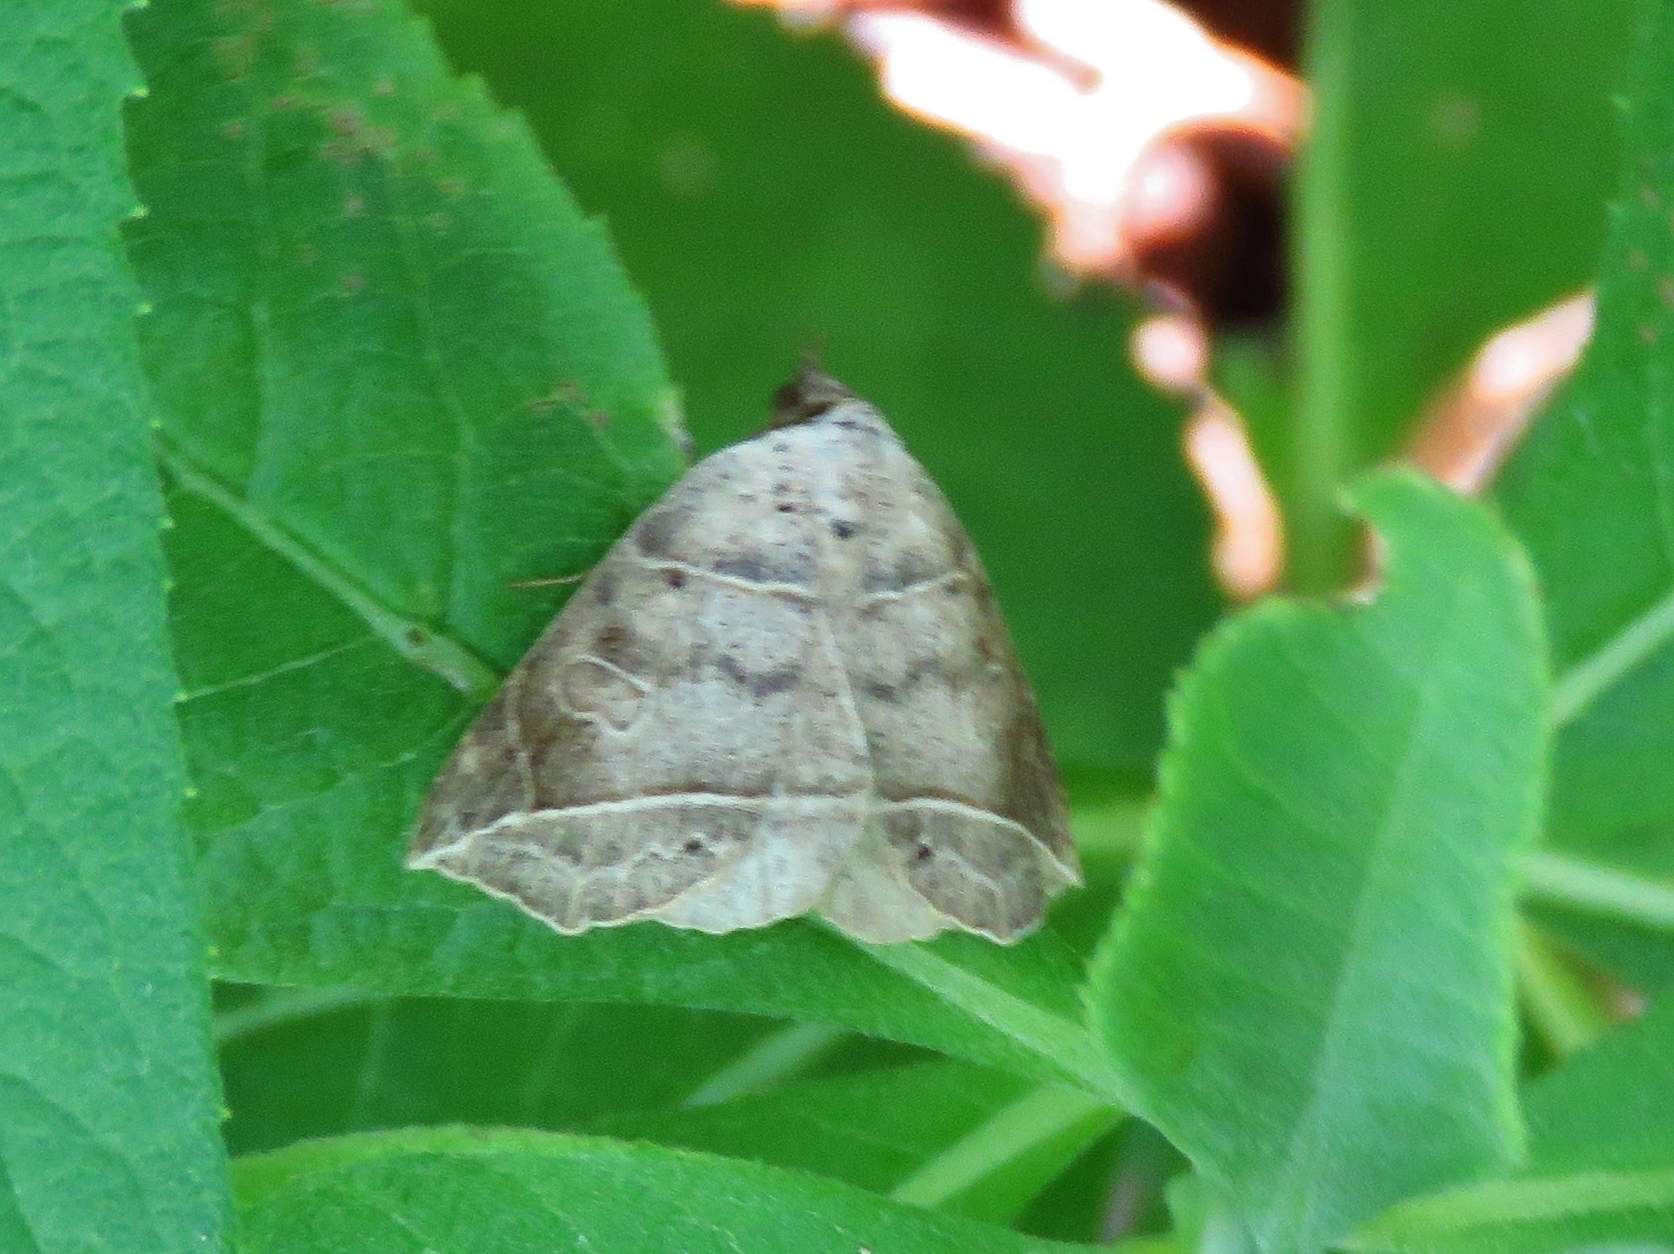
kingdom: Animalia
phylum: Arthropoda
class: Insecta
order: Lepidoptera
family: Erebidae
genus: Isogona
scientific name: Isogona tenuis
